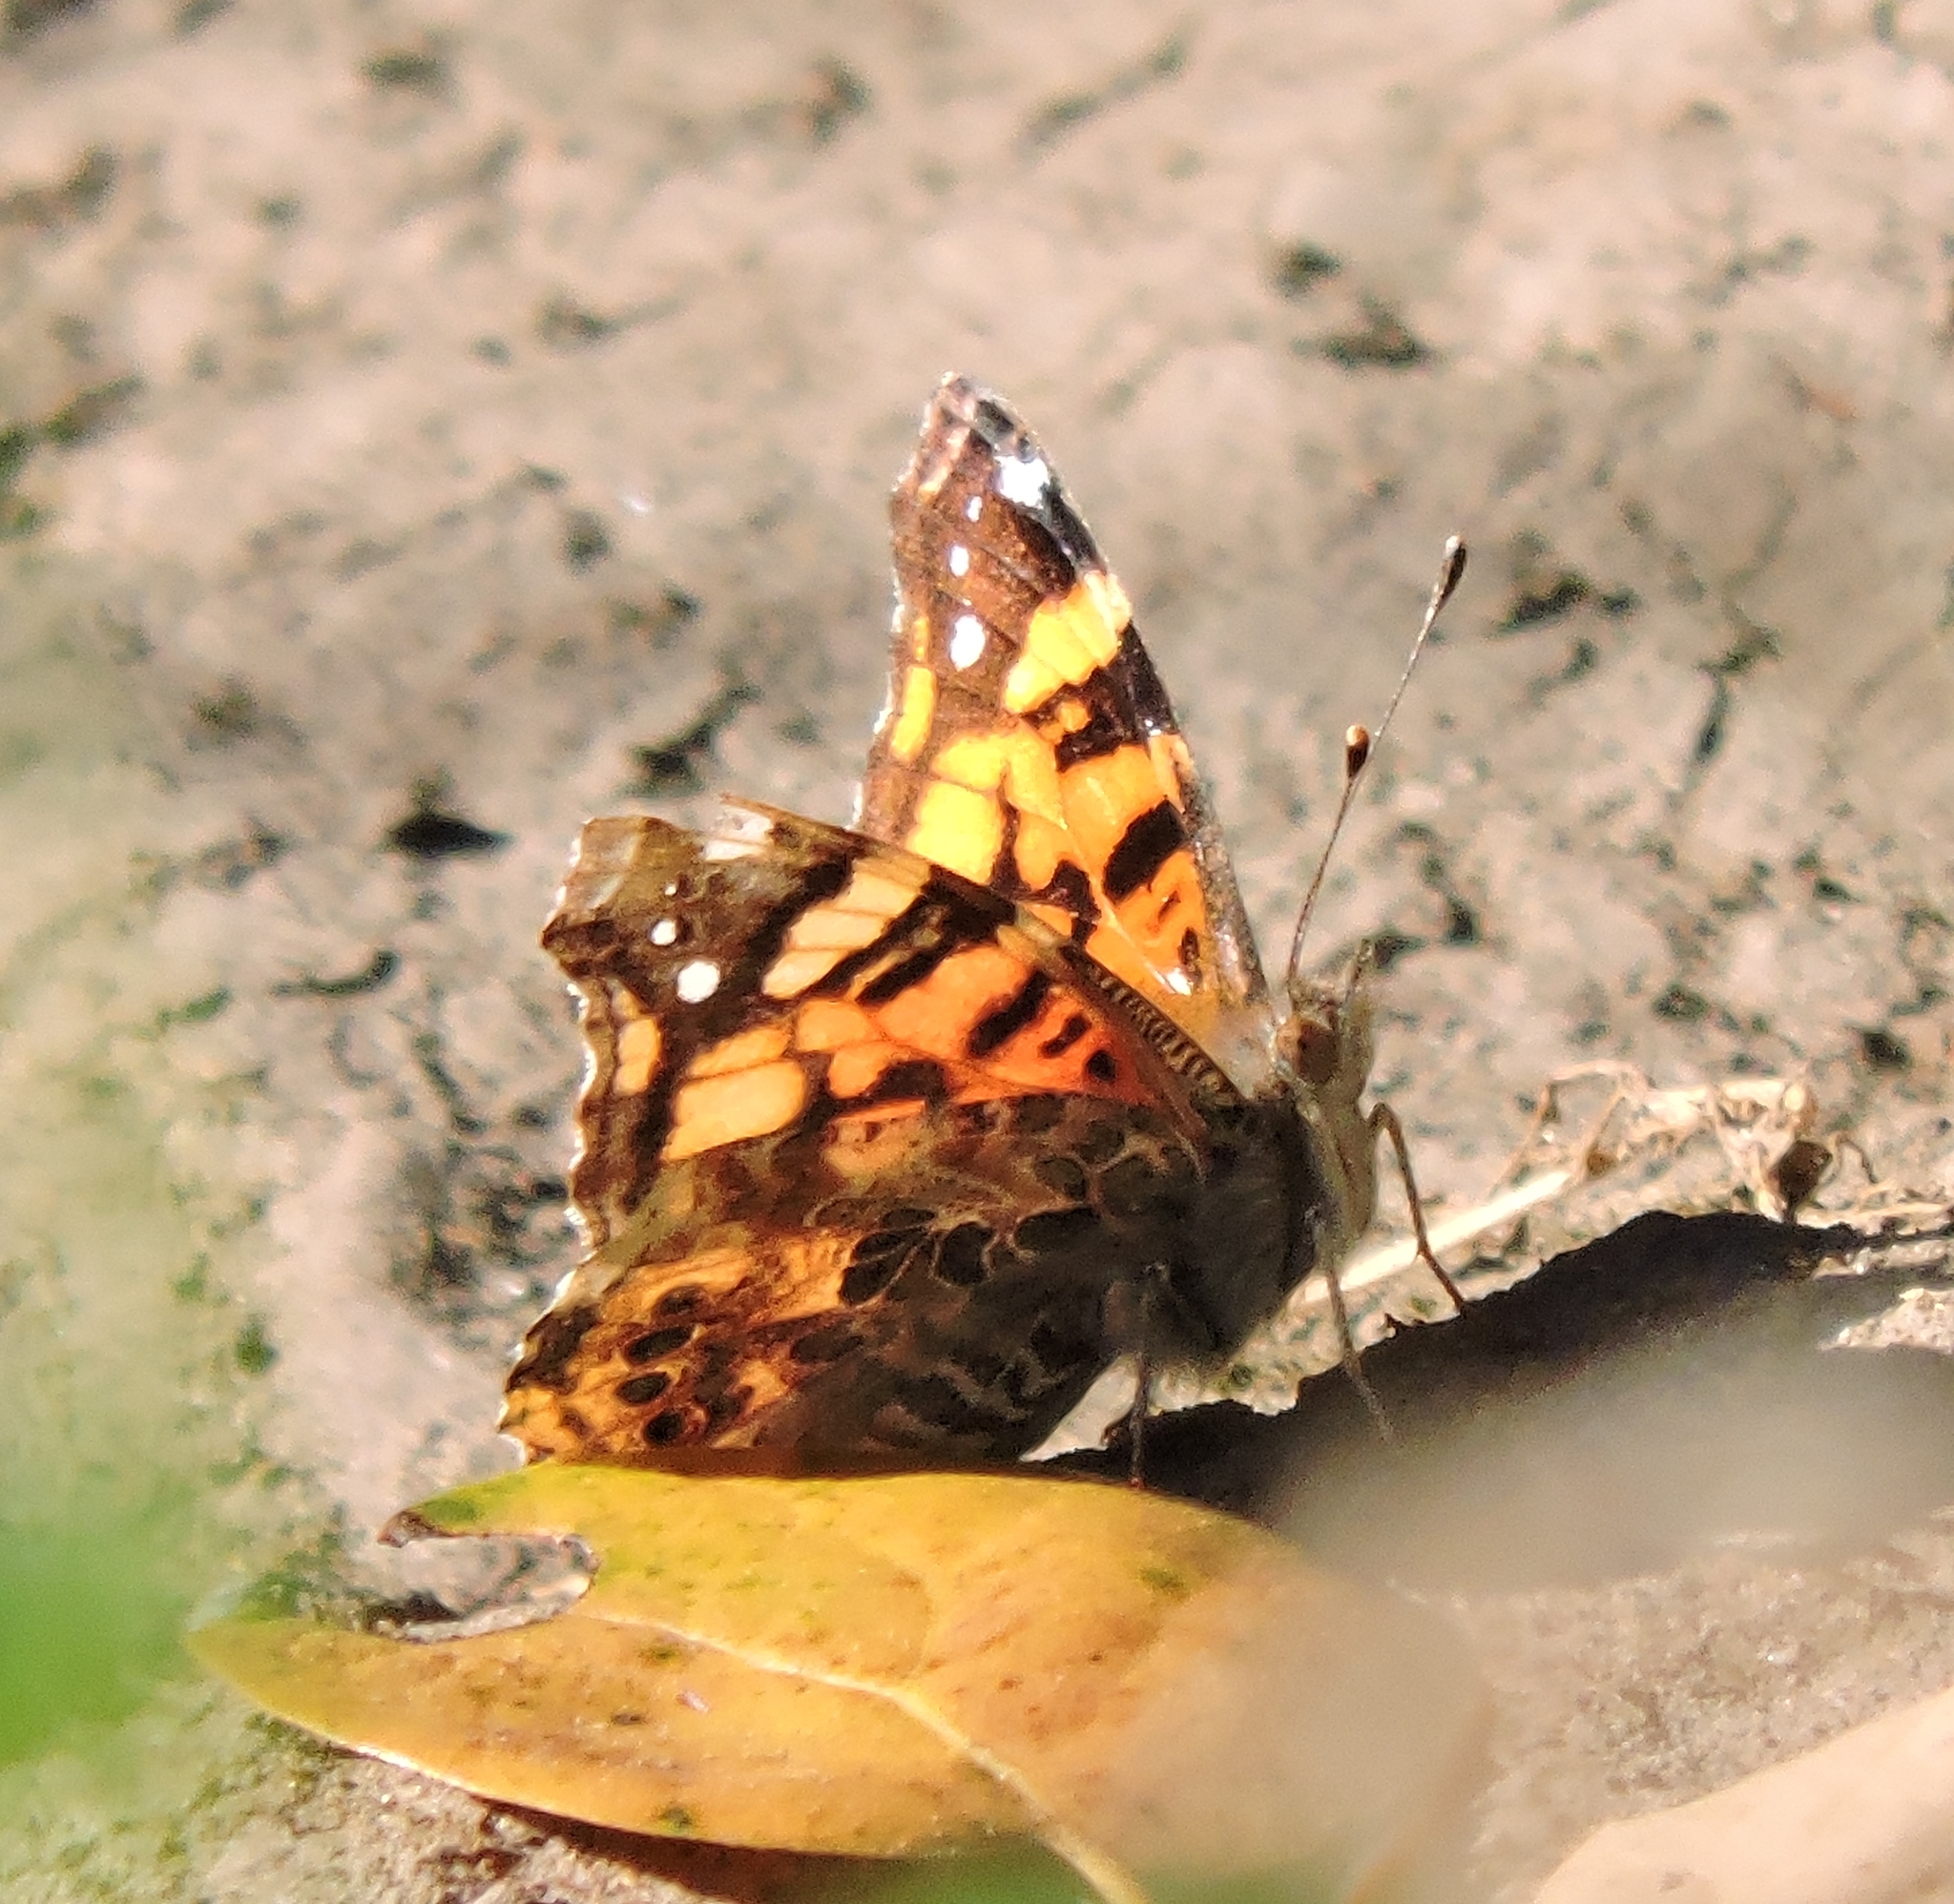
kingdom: Animalia
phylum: Arthropoda
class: Insecta
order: Lepidoptera
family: Nymphalidae
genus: Vanessa
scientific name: Vanessa annabella
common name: West coast lady
